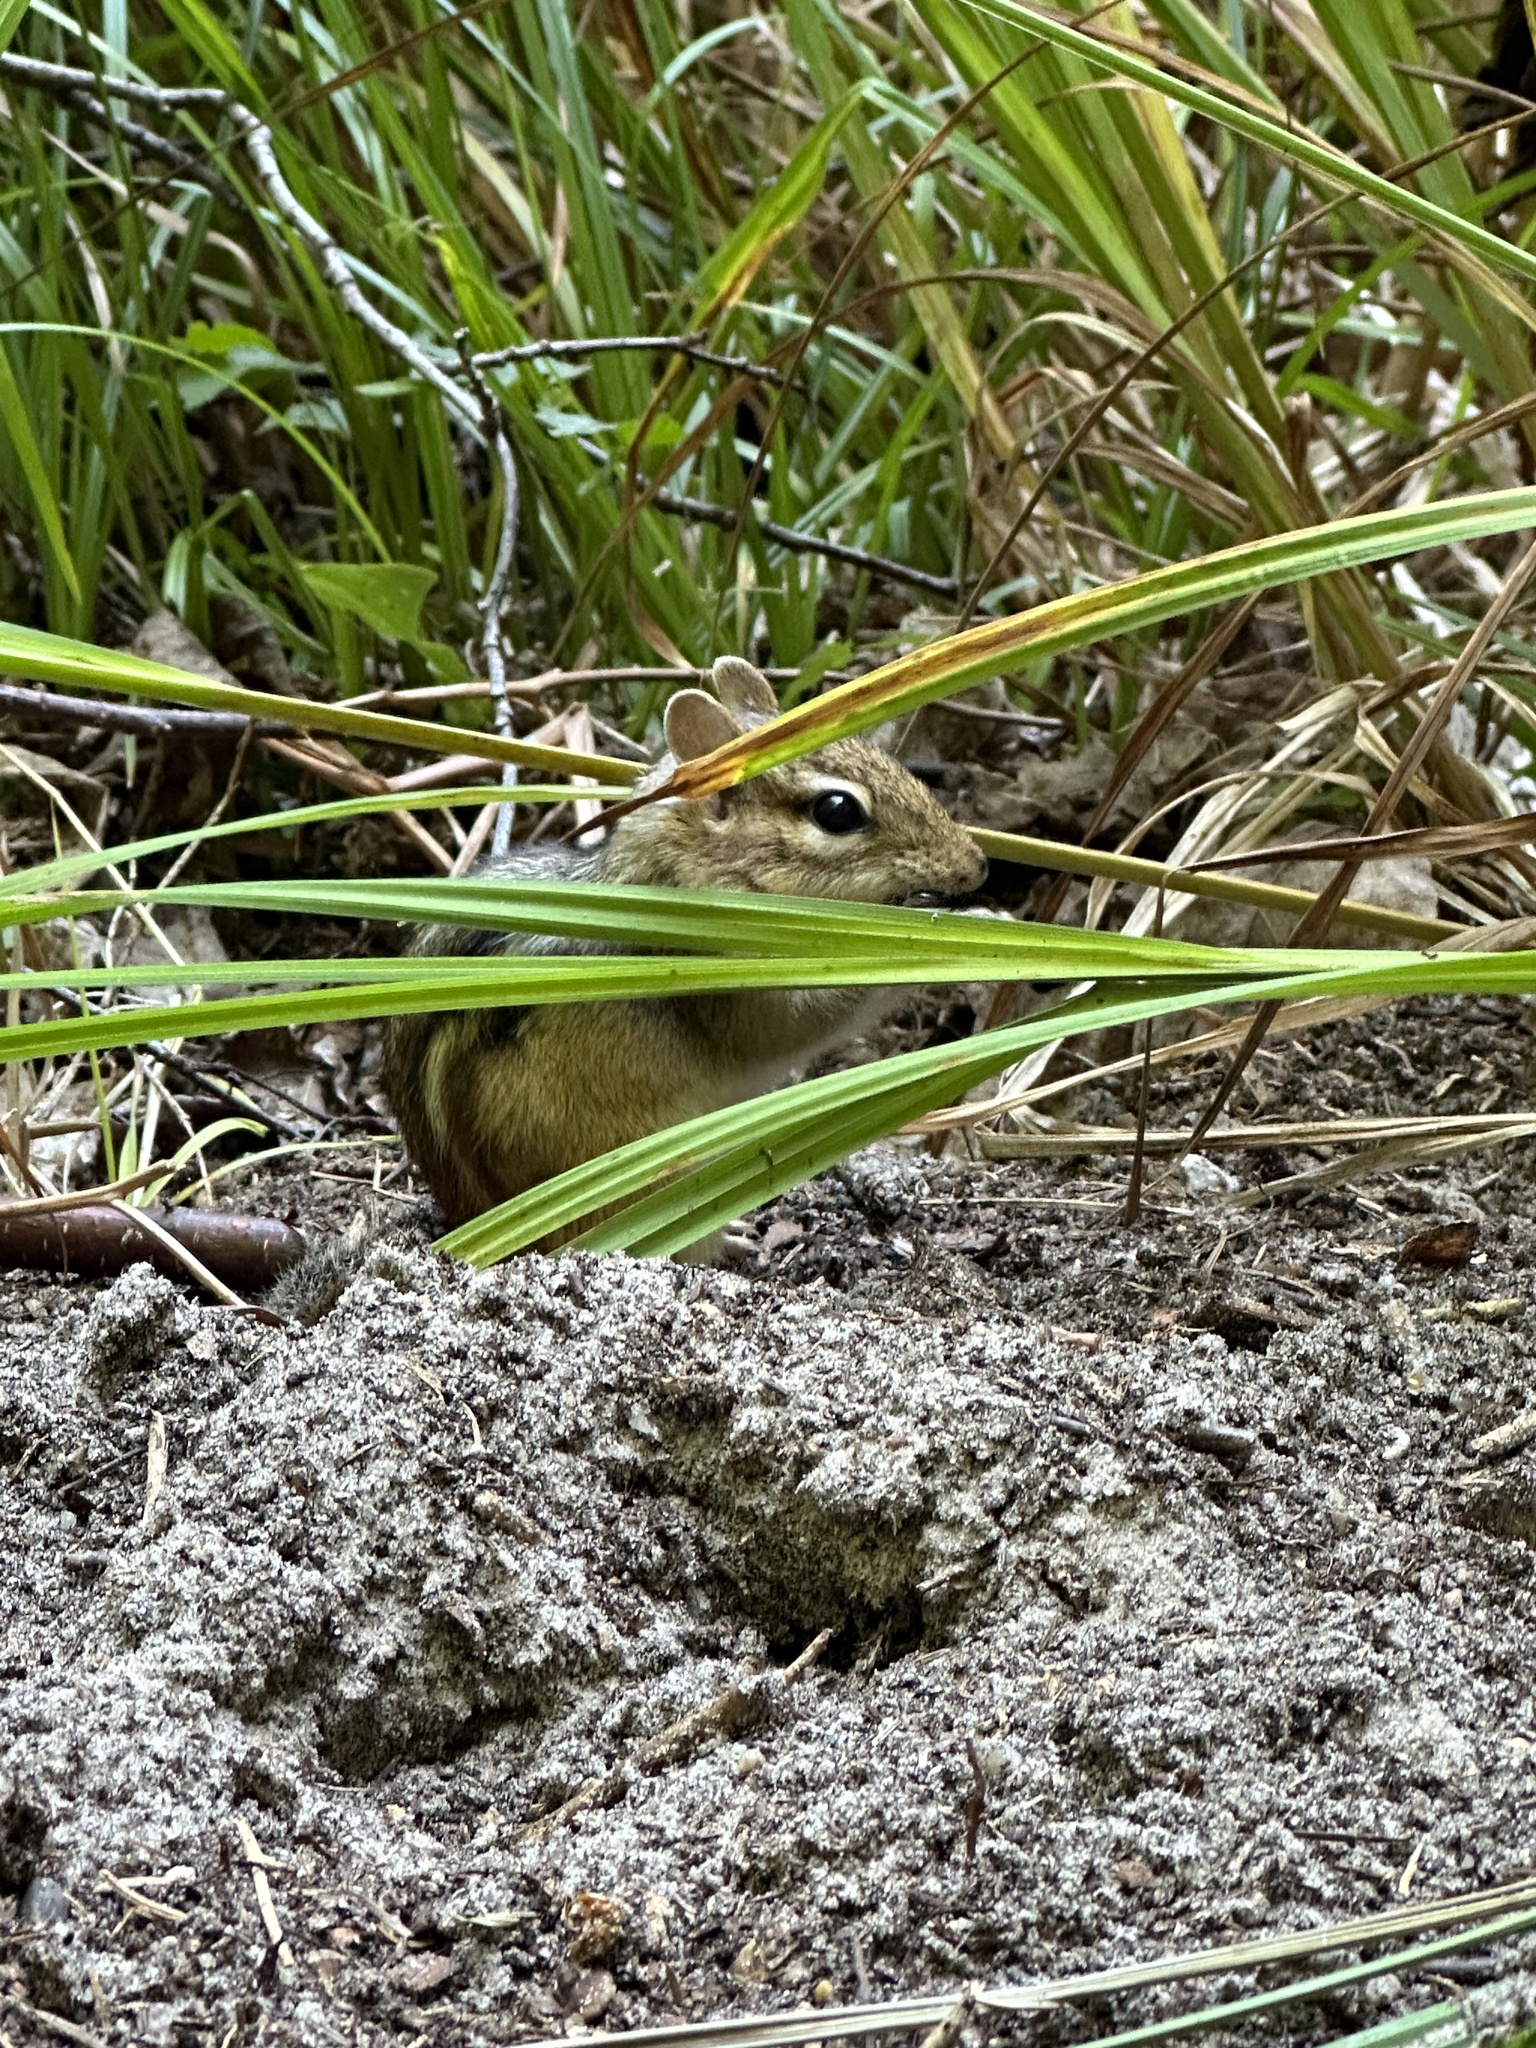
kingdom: Animalia
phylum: Chordata
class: Mammalia
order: Rodentia
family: Sciuridae
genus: Tamias
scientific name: Tamias striatus
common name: Eastern chipmunk
